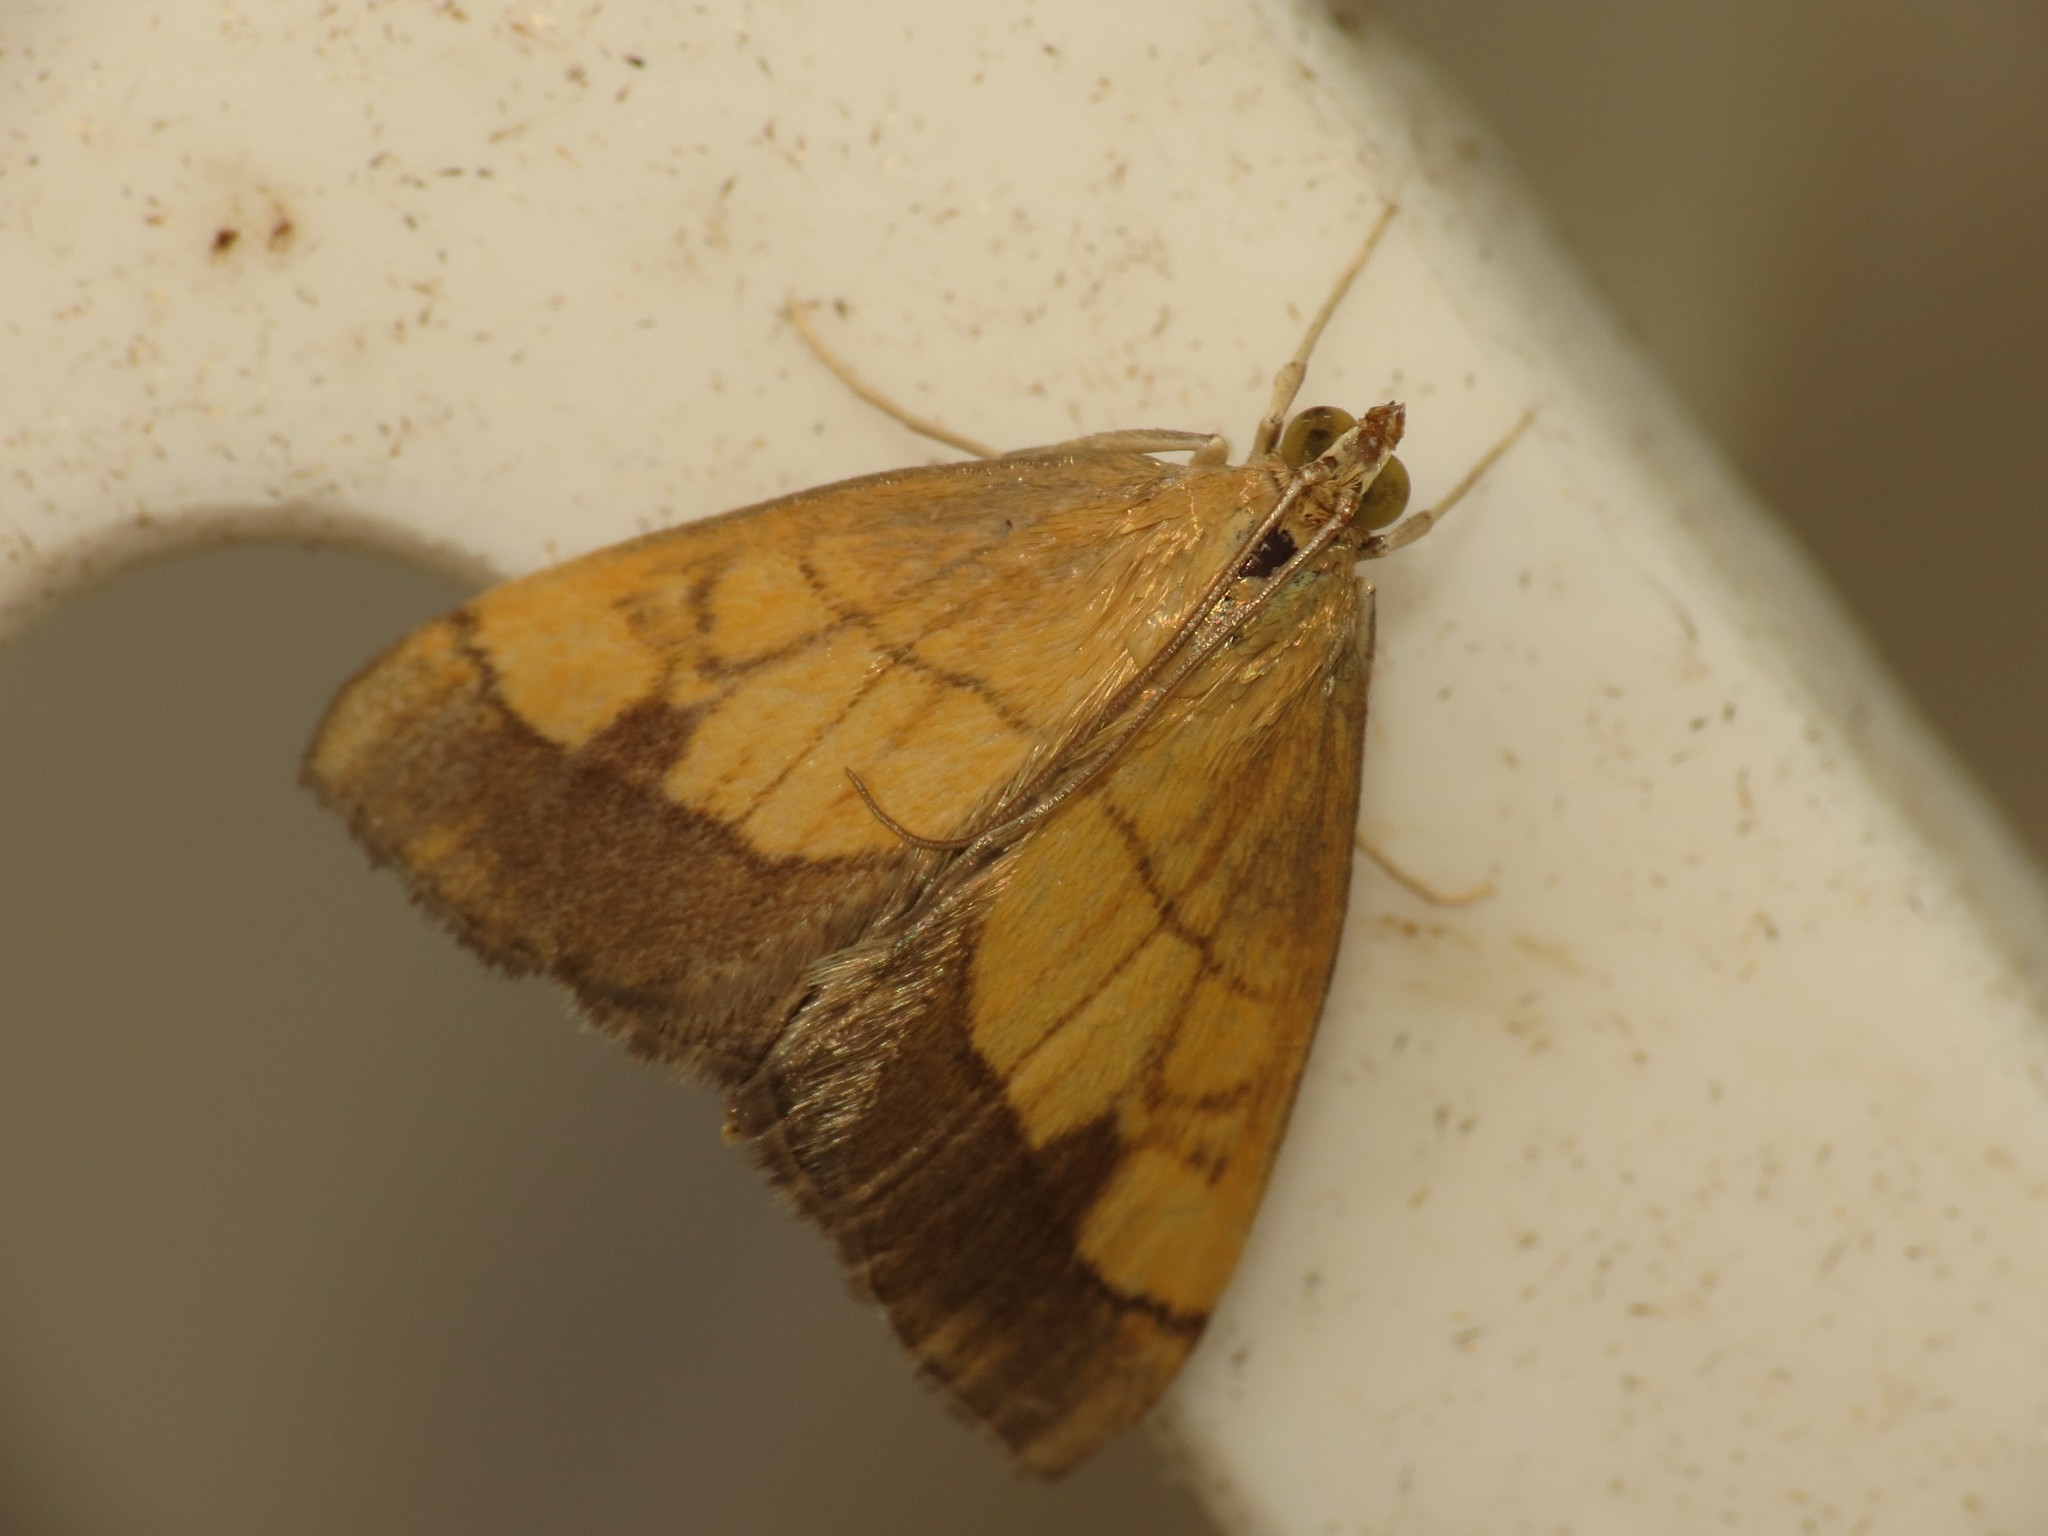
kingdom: Animalia
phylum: Arthropoda
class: Insecta
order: Lepidoptera
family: Crambidae
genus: Evergestis
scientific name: Evergestis limbata
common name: Dark bordered pearl
